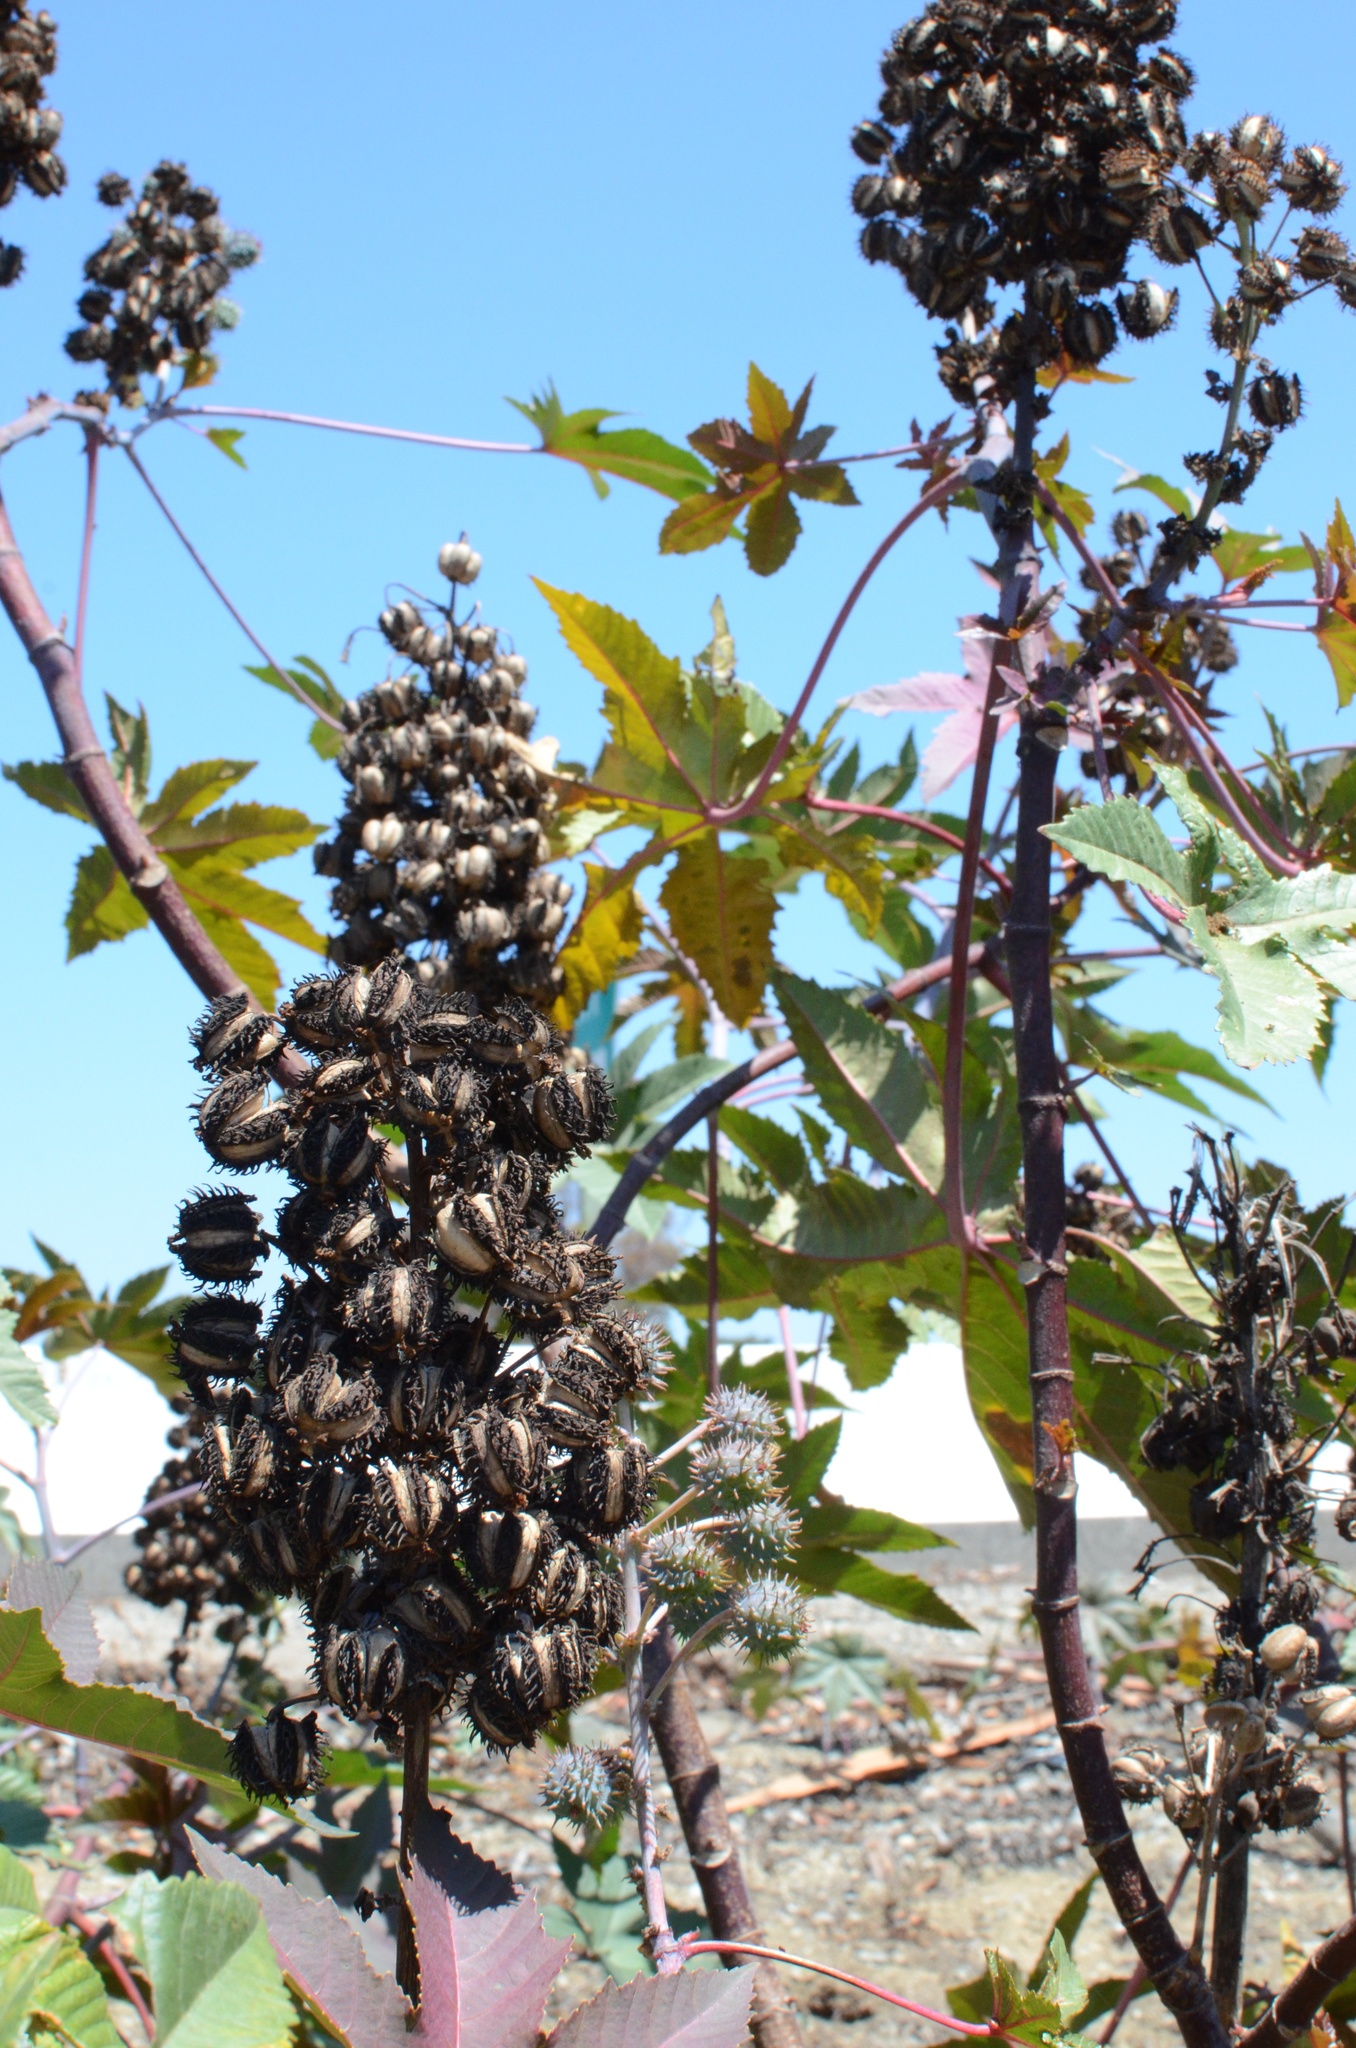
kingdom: Plantae
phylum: Tracheophyta
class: Magnoliopsida
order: Malpighiales
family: Euphorbiaceae
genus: Ricinus
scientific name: Ricinus communis
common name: Castor-oil-plant
